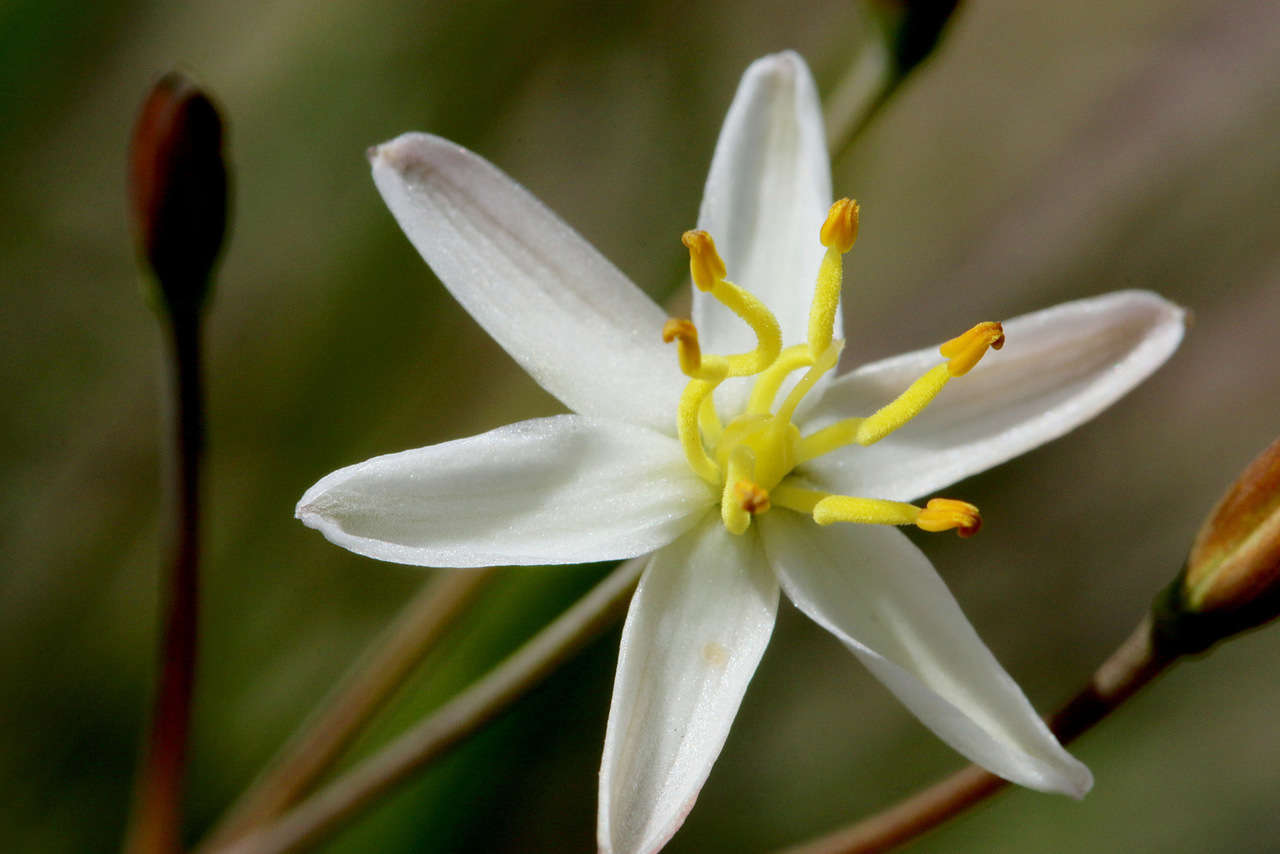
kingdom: Plantae
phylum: Tracheophyta
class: Liliopsida
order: Asparagales
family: Asphodelaceae
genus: Thelionema
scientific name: Thelionema caespitosum
